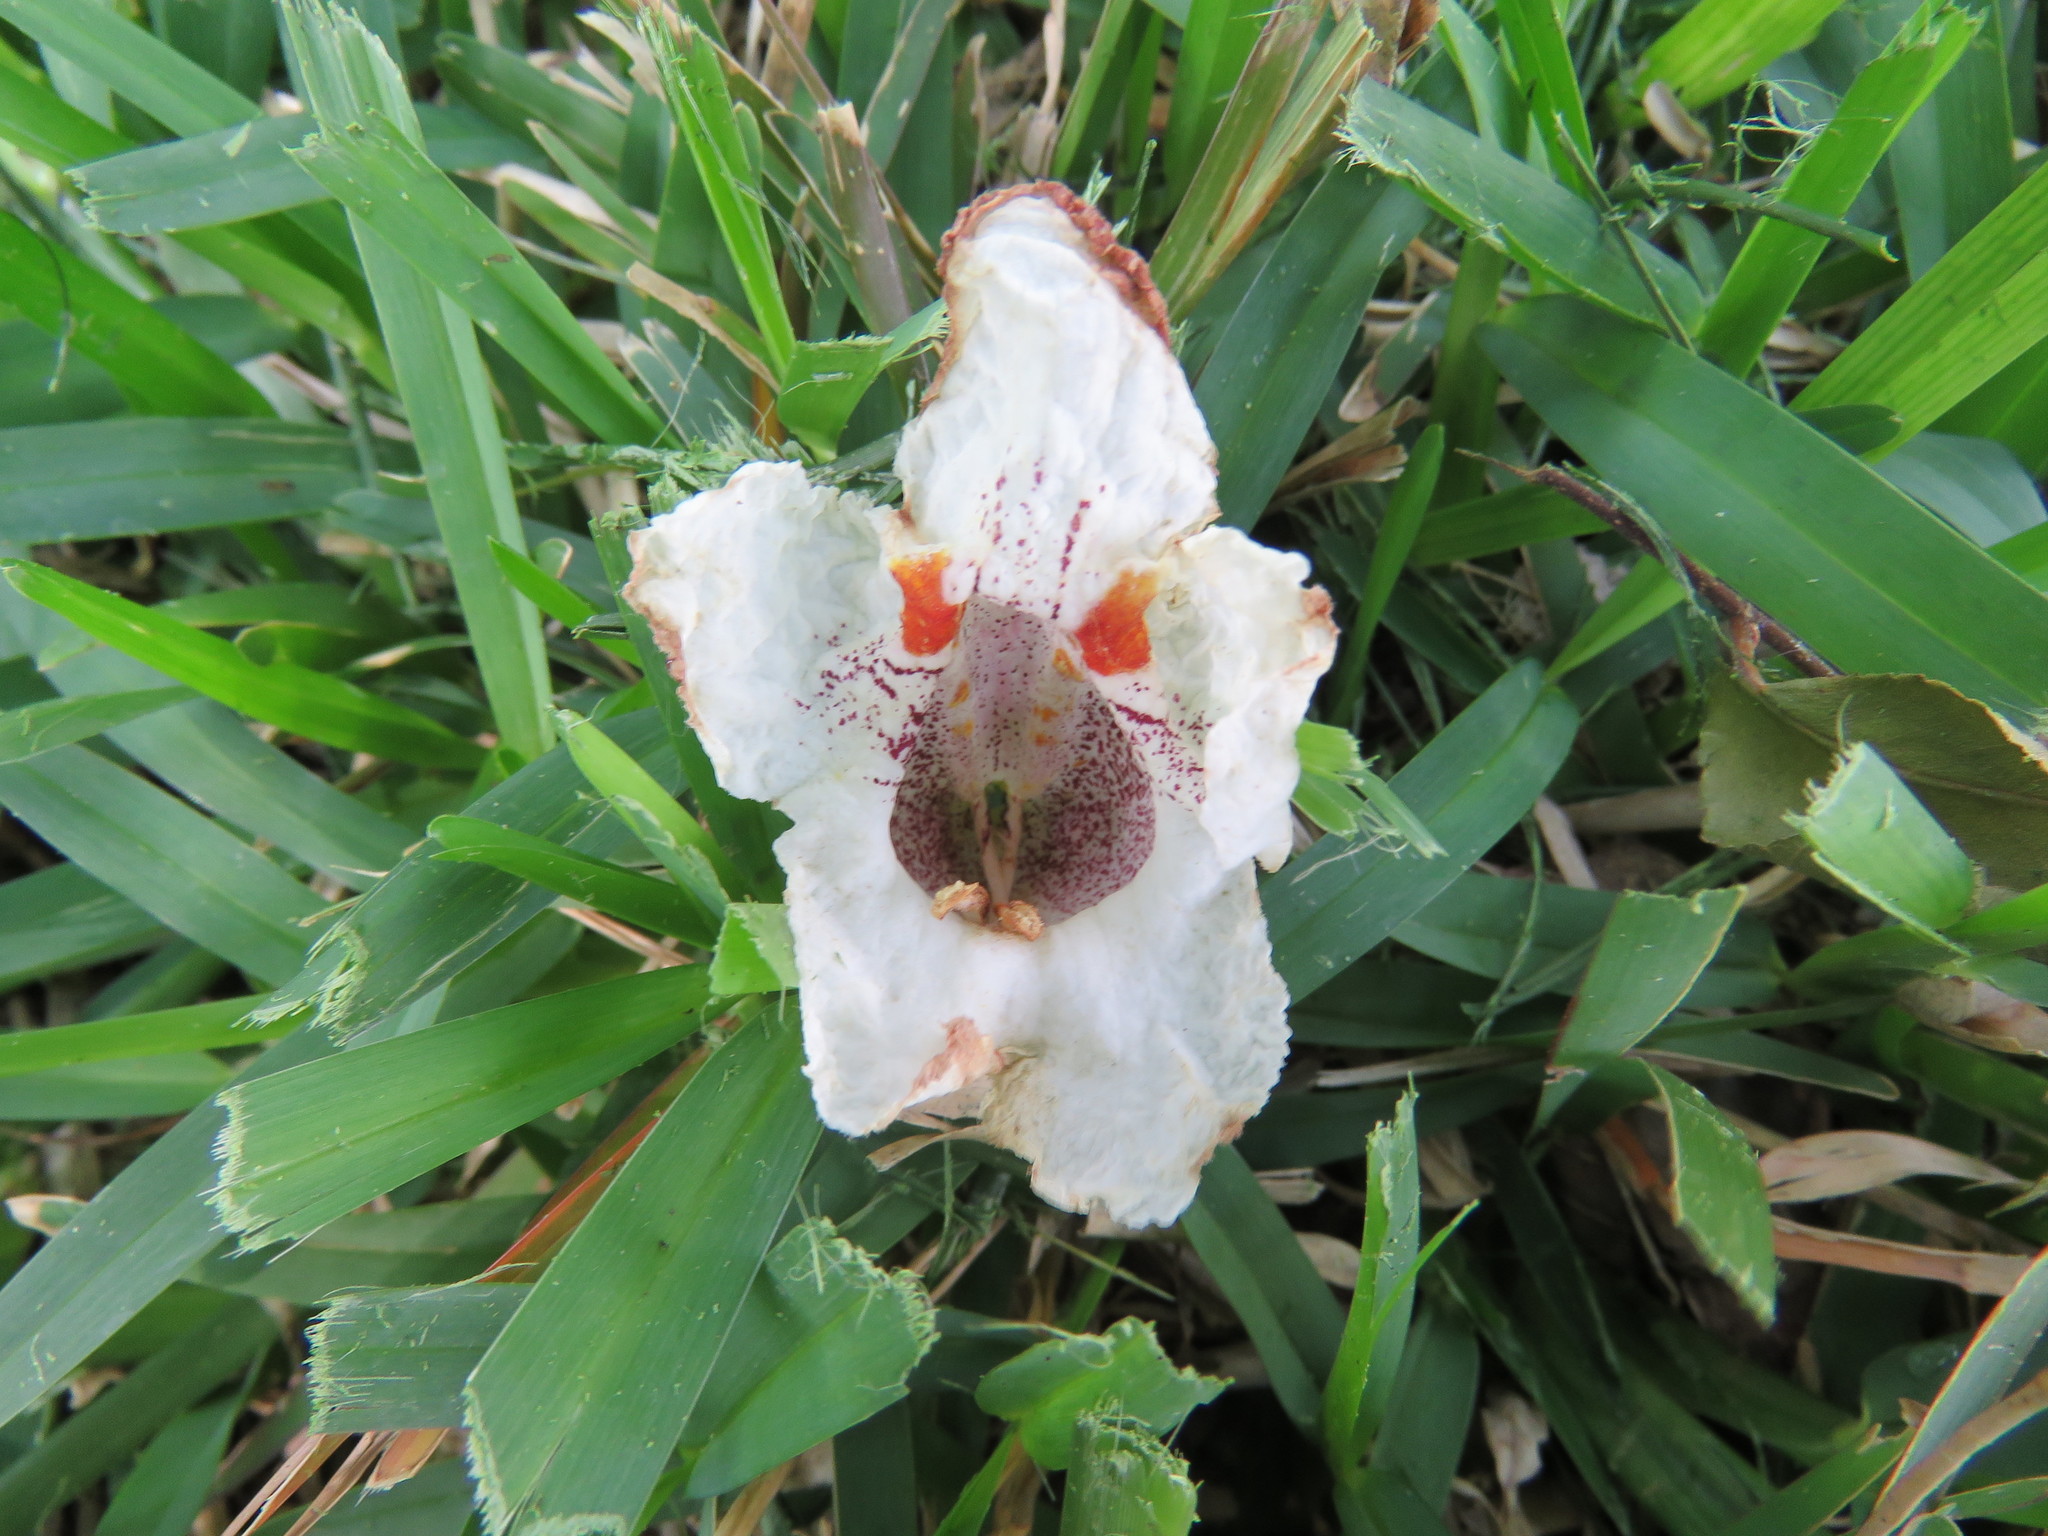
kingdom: Plantae
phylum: Tracheophyta
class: Magnoliopsida
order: Lamiales
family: Bignoniaceae
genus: Catalpa
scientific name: Catalpa speciosa
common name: Northern catalpa
